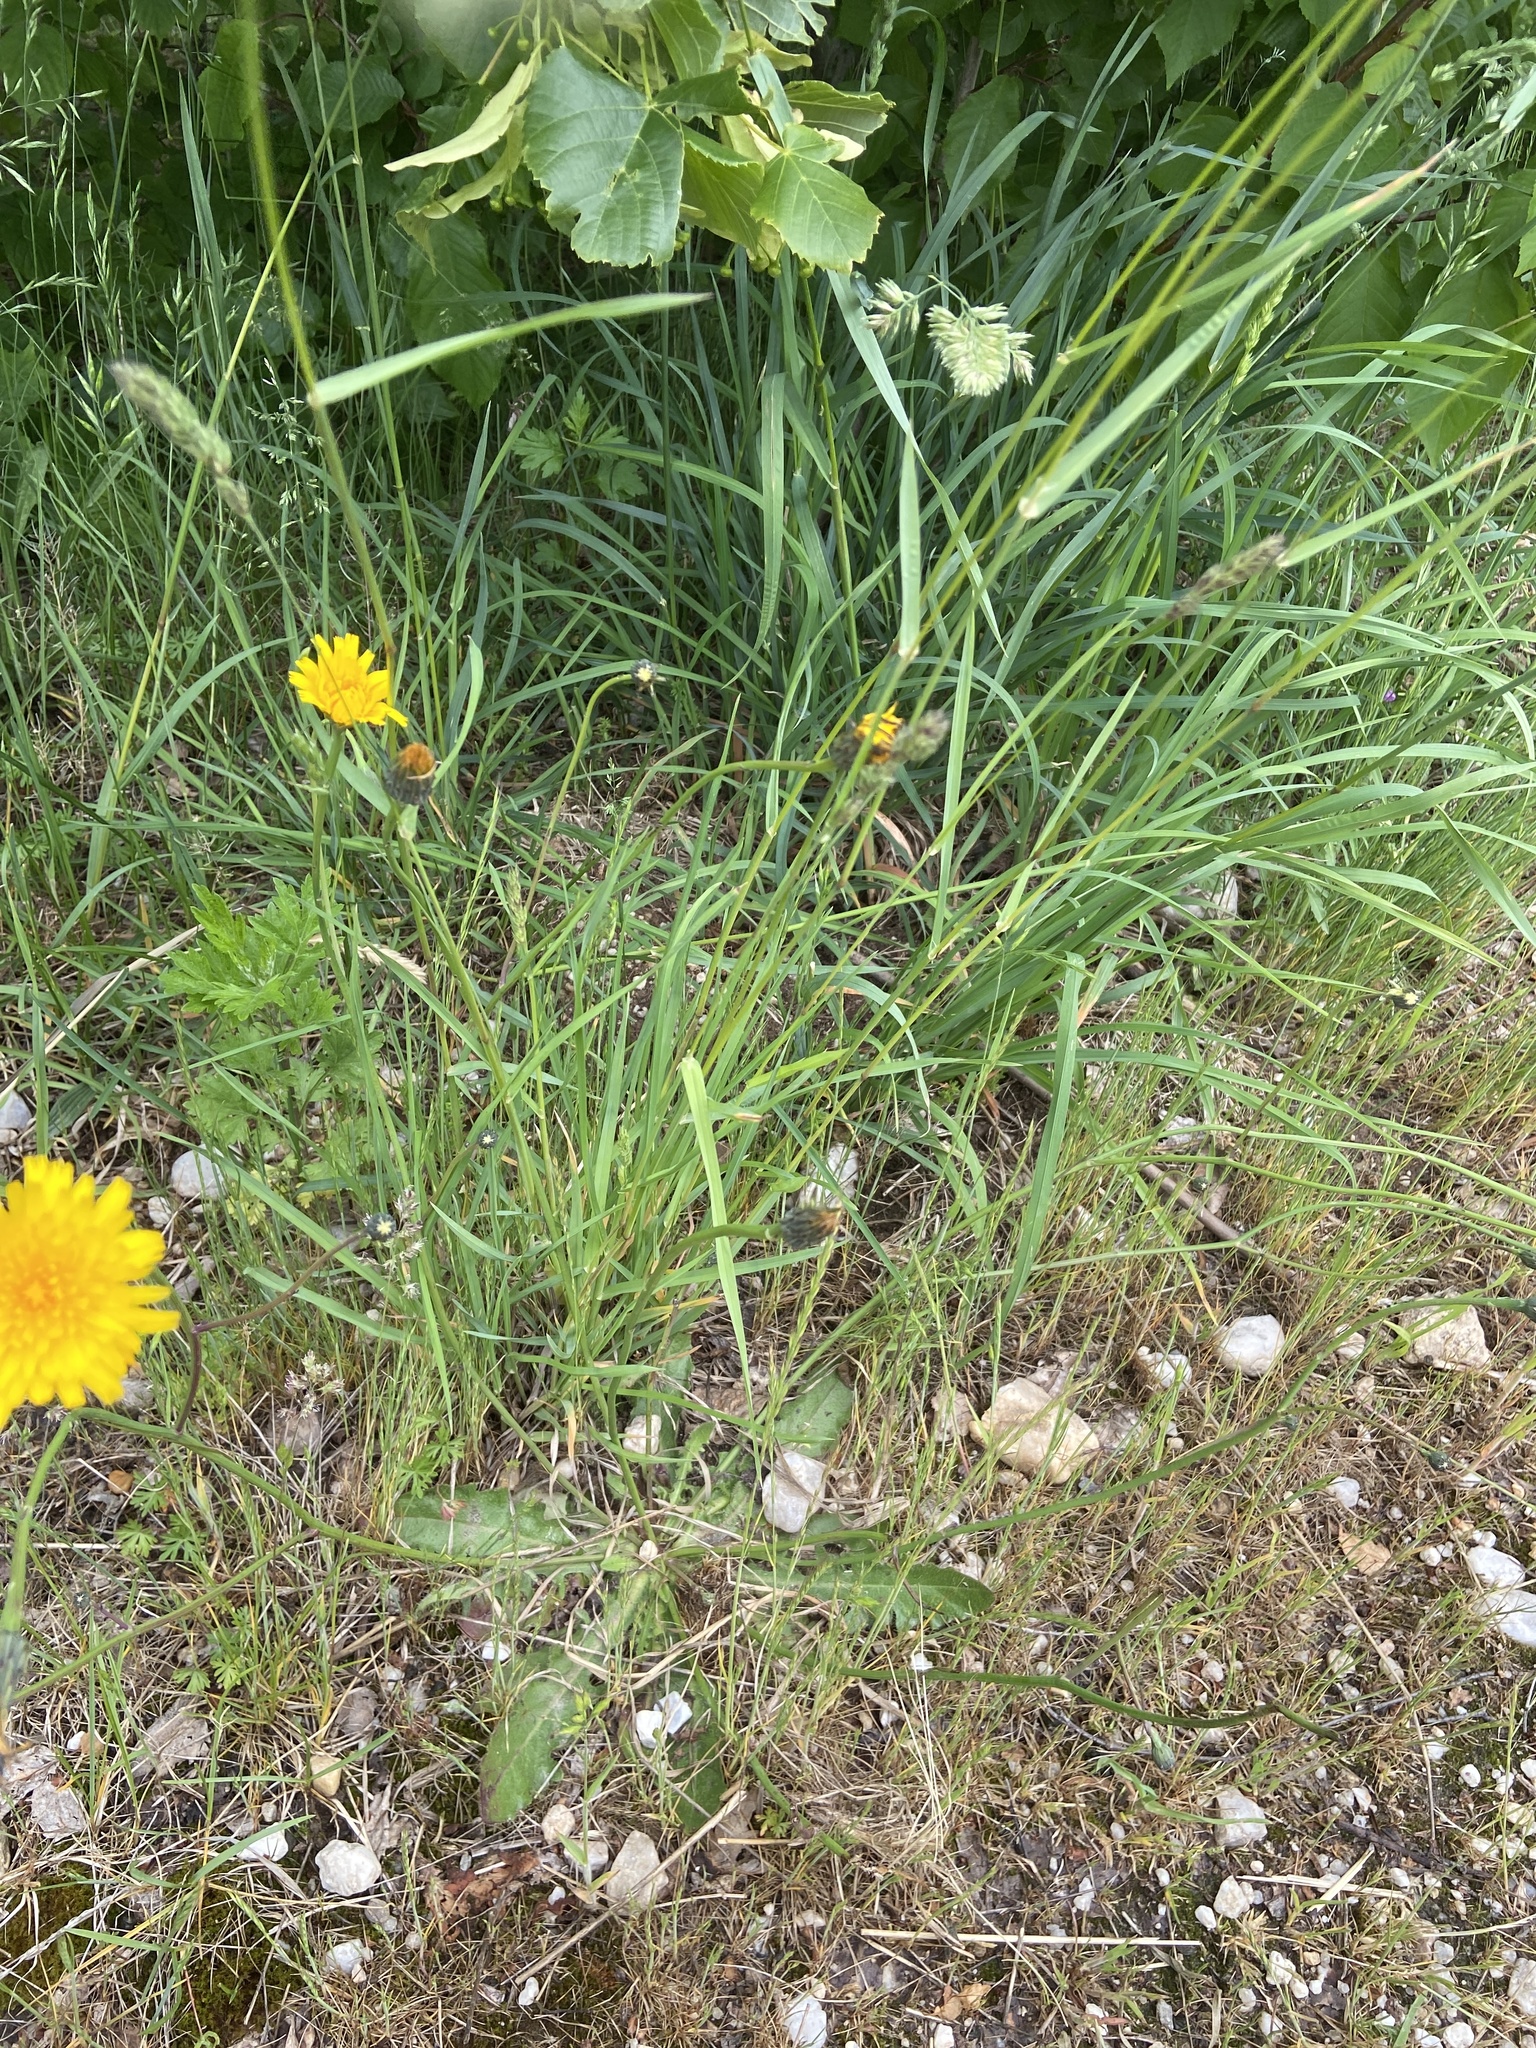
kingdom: Plantae
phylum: Tracheophyta
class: Magnoliopsida
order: Asterales
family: Asteraceae
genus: Hypochaeris
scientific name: Hypochaeris radicata
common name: Flatweed
